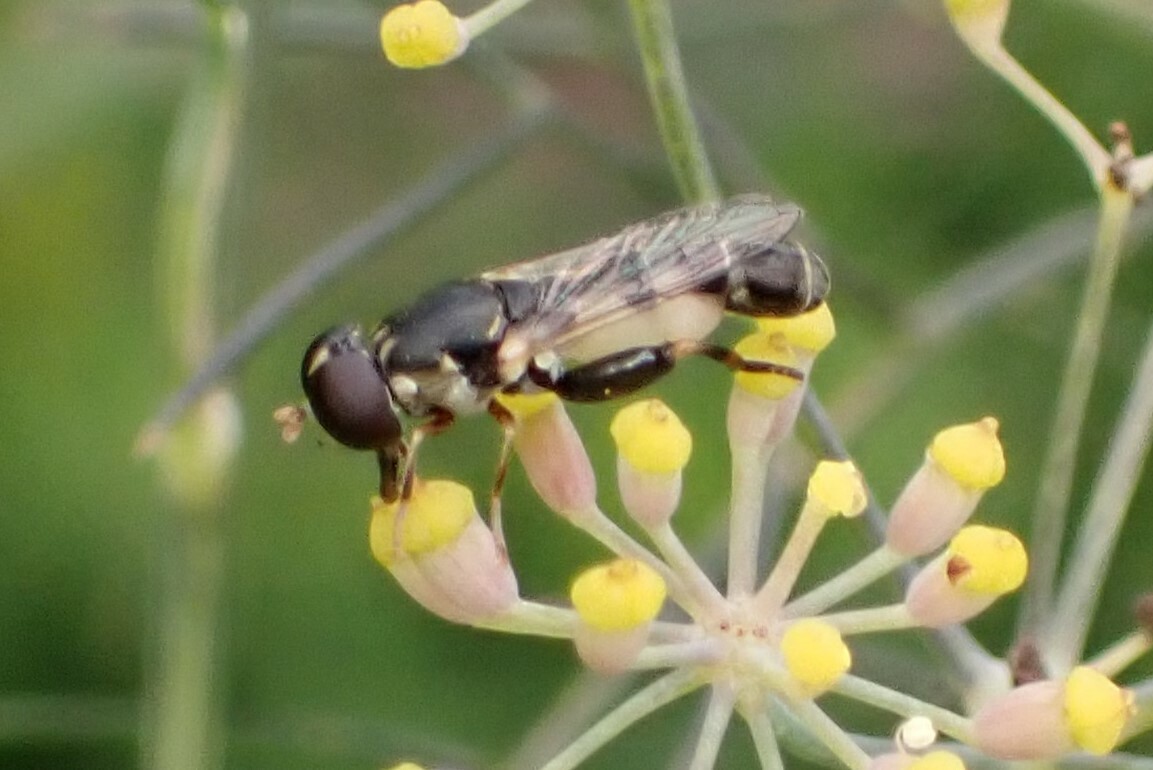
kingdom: Animalia
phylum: Arthropoda
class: Insecta
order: Diptera
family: Syrphidae
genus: Syritta
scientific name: Syritta pipiens
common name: Hover fly
